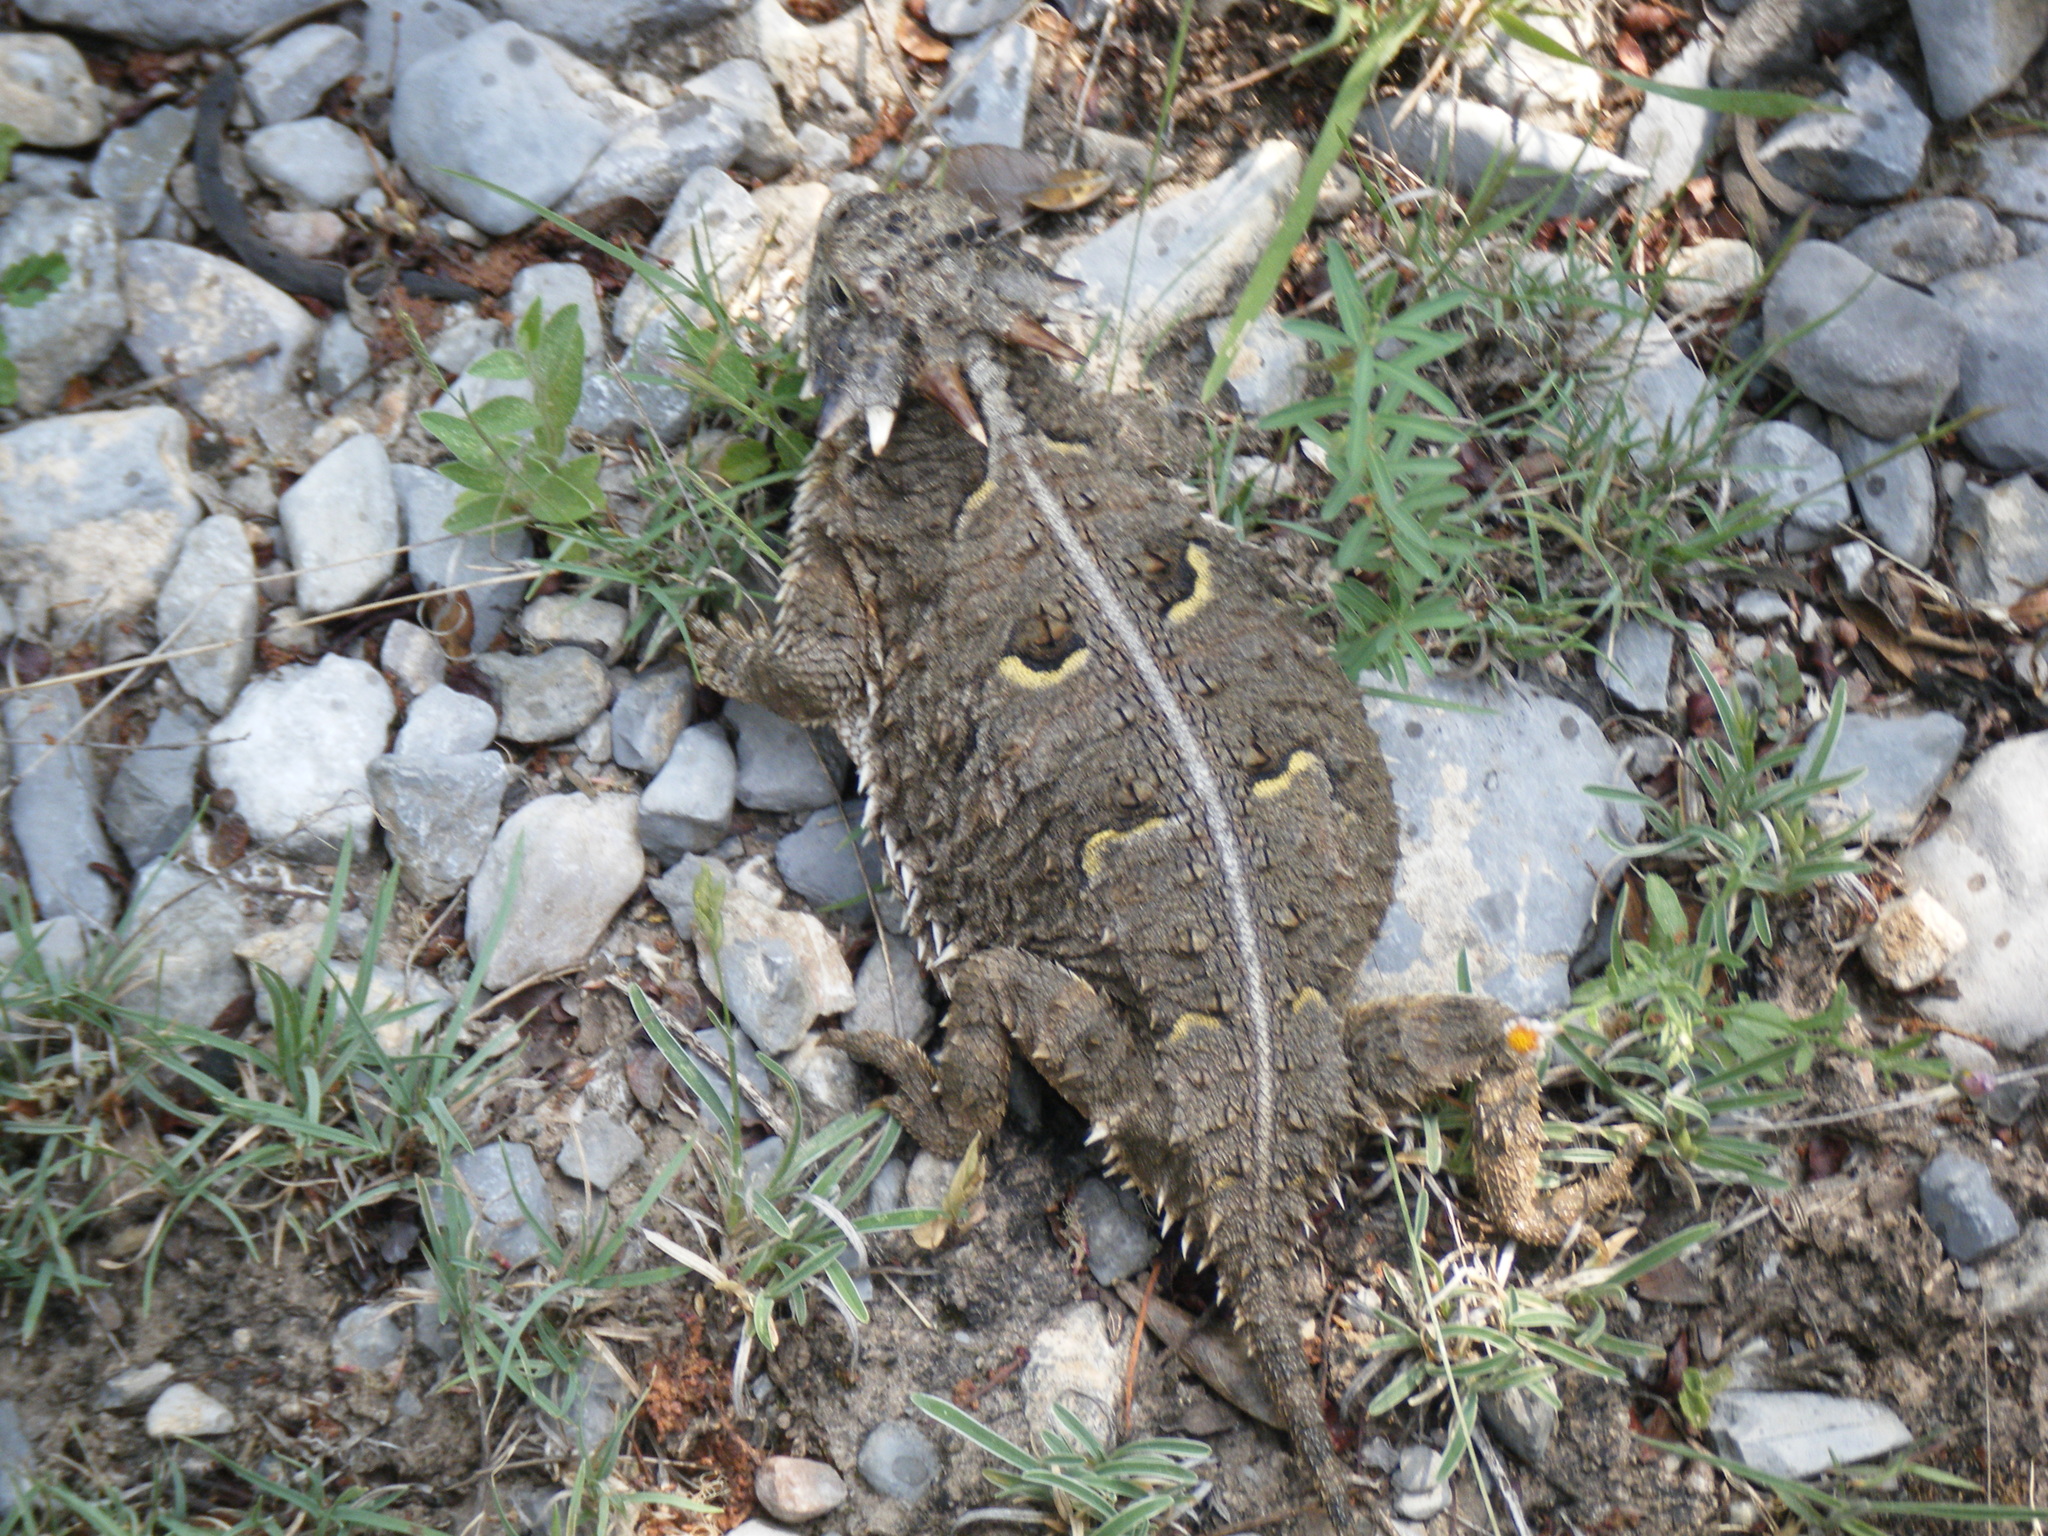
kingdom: Animalia
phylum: Chordata
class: Squamata
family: Phrynosomatidae
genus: Phrynosoma
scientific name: Phrynosoma cornutum
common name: Texas horned lizard
